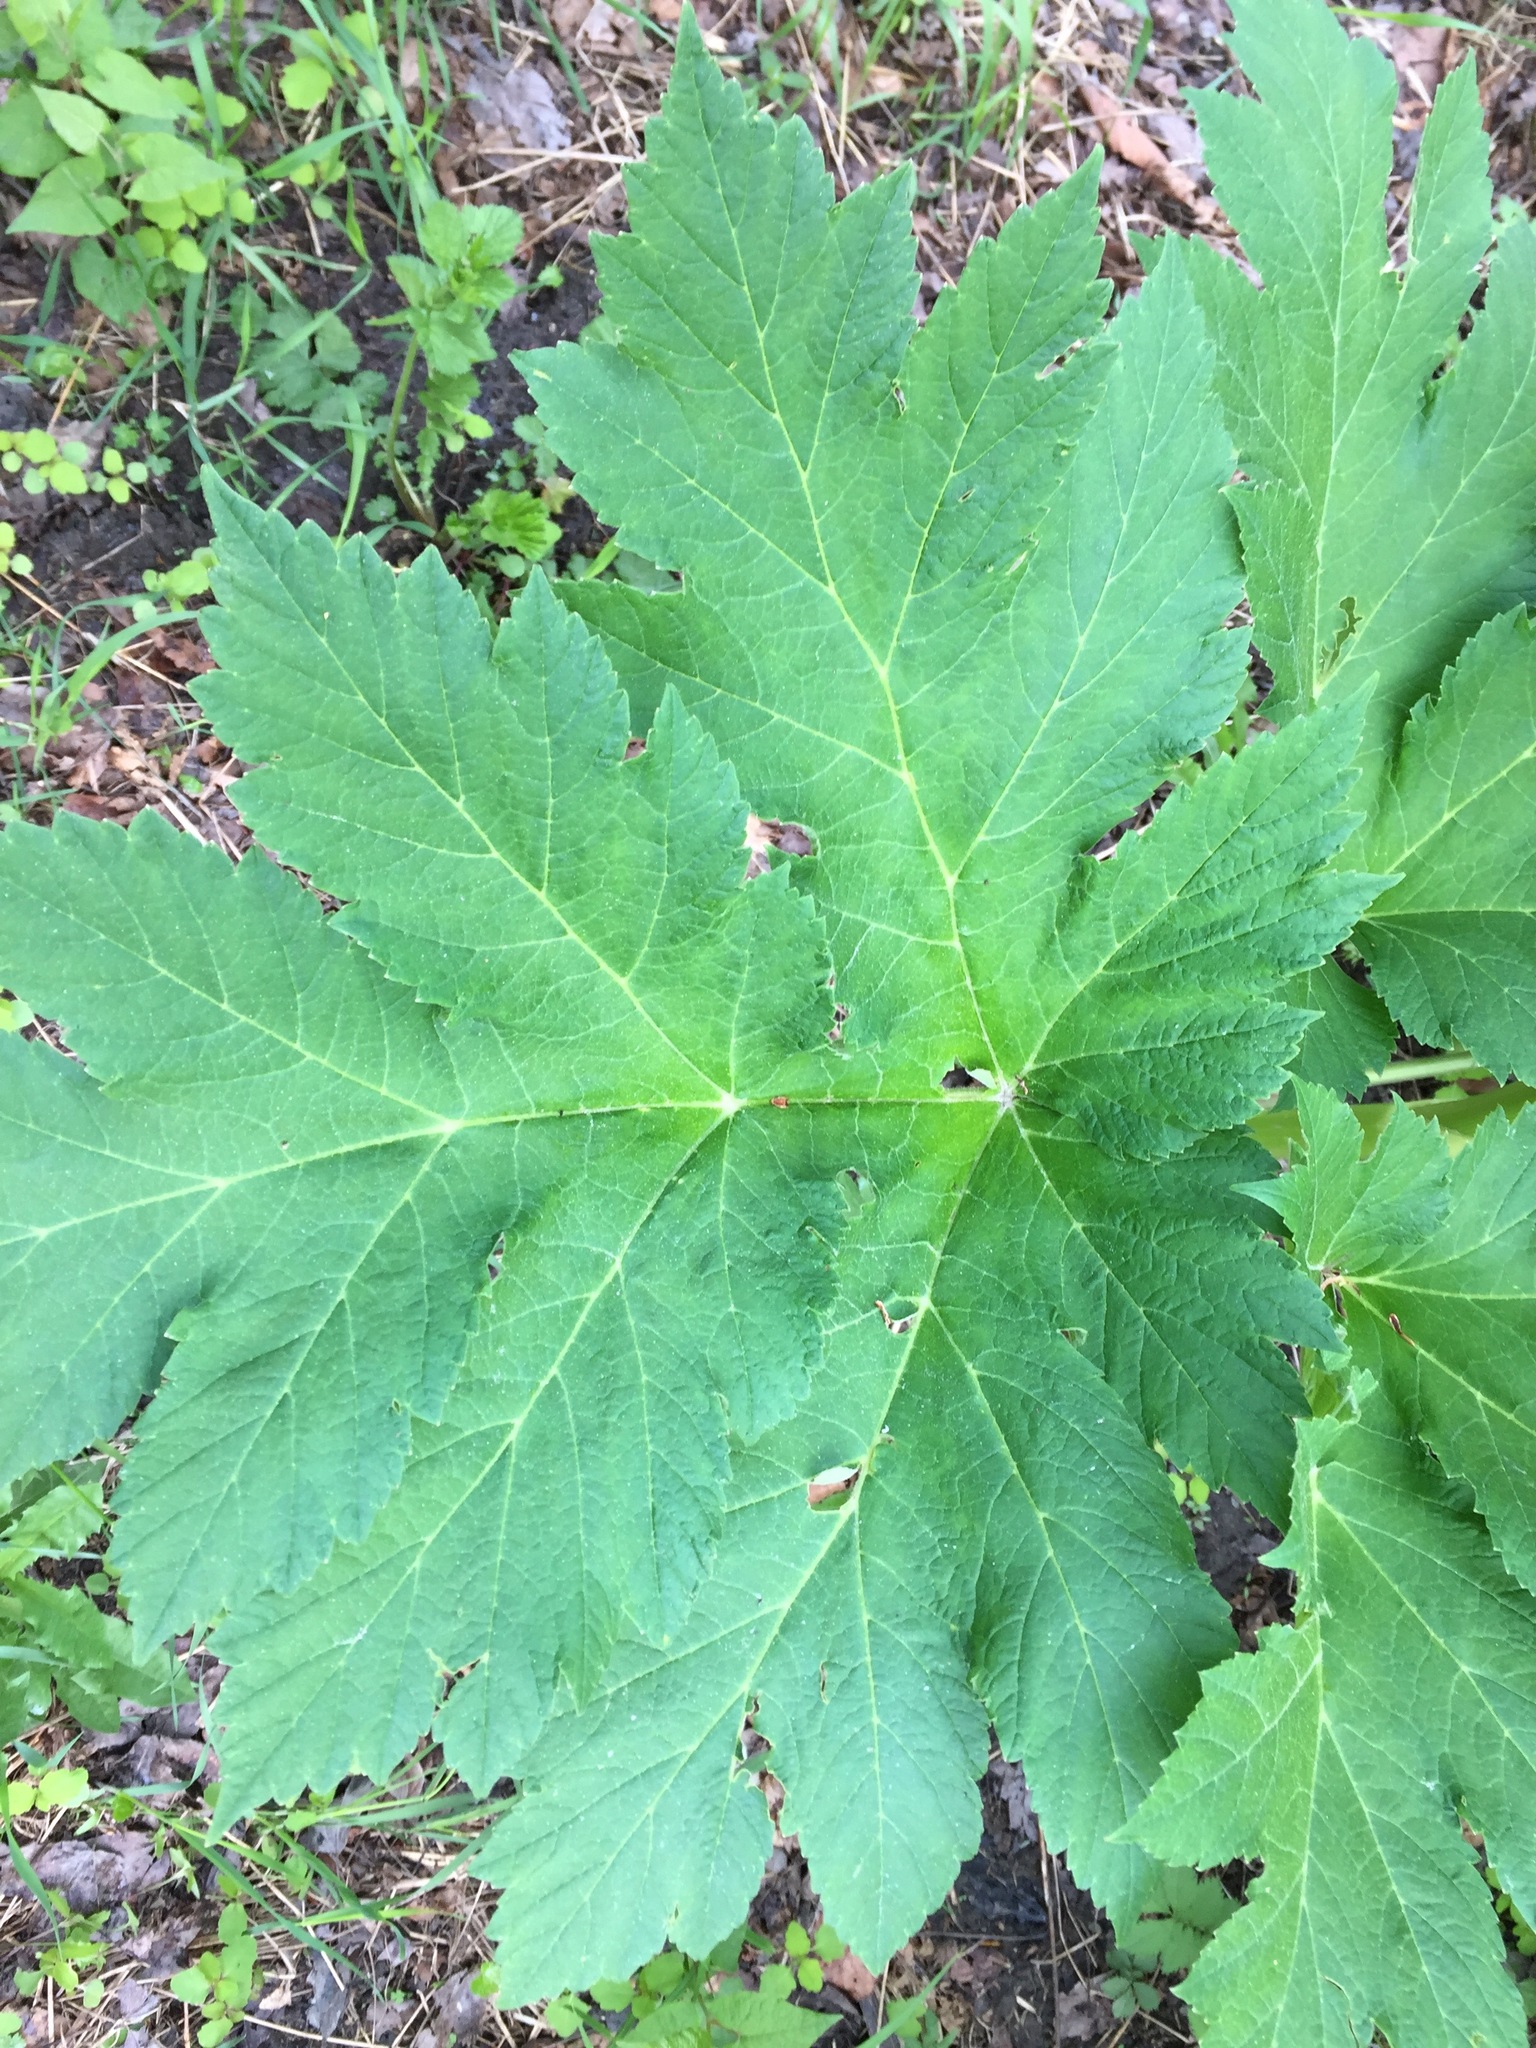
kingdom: Plantae
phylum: Tracheophyta
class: Magnoliopsida
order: Apiales
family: Apiaceae
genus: Heracleum
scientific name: Heracleum maximum
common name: American cow parsnip
